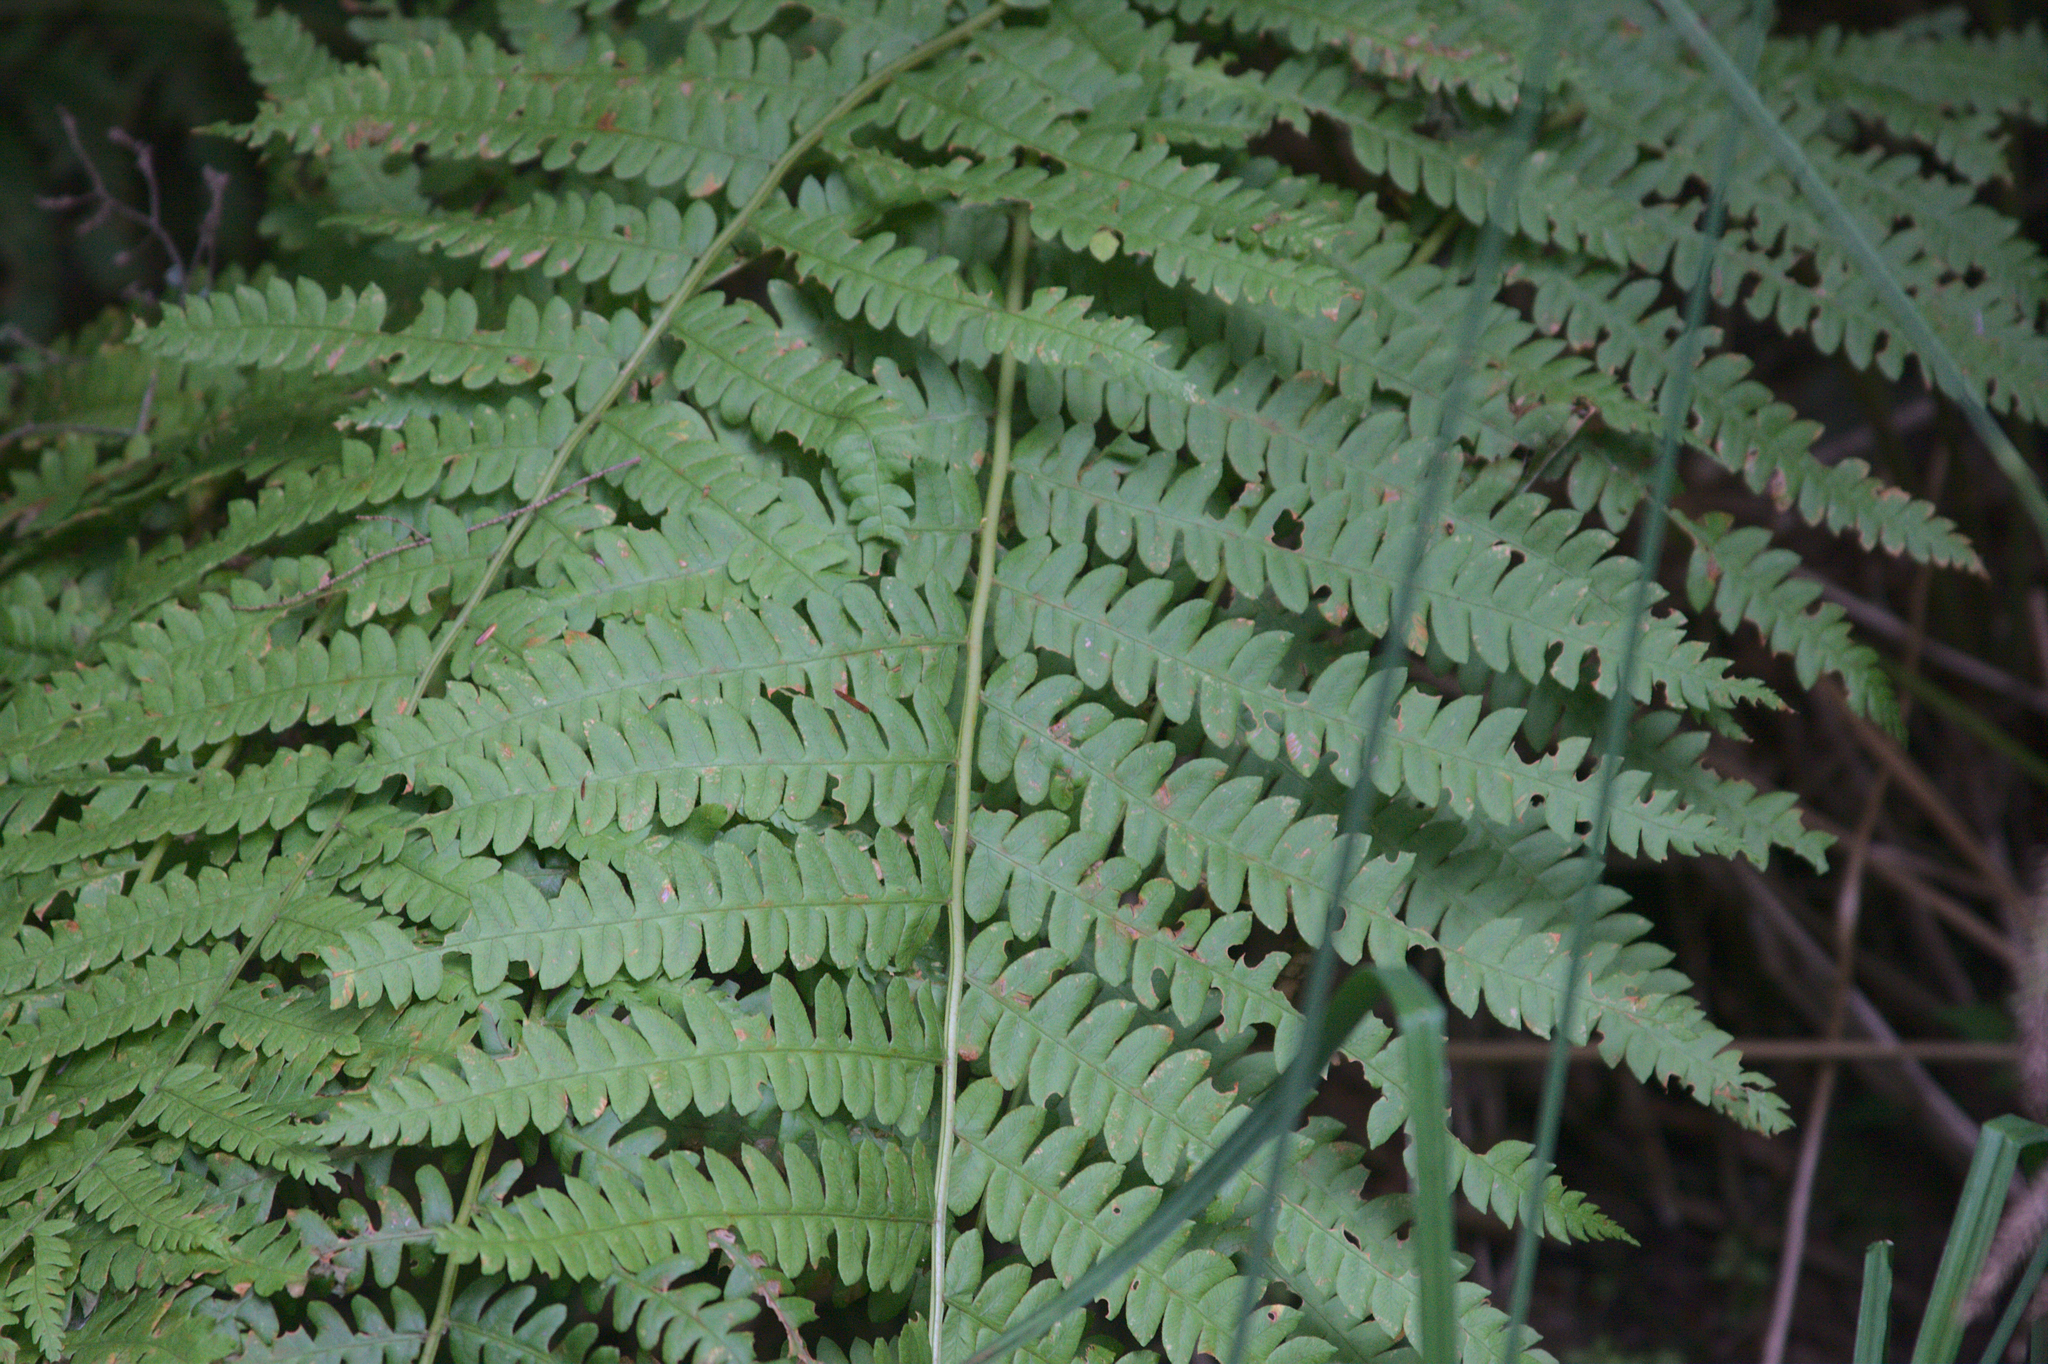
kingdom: Plantae
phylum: Tracheophyta
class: Polypodiopsida
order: Osmundales
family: Osmundaceae
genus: Osmundastrum
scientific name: Osmundastrum cinnamomeum
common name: Cinnamon fern
